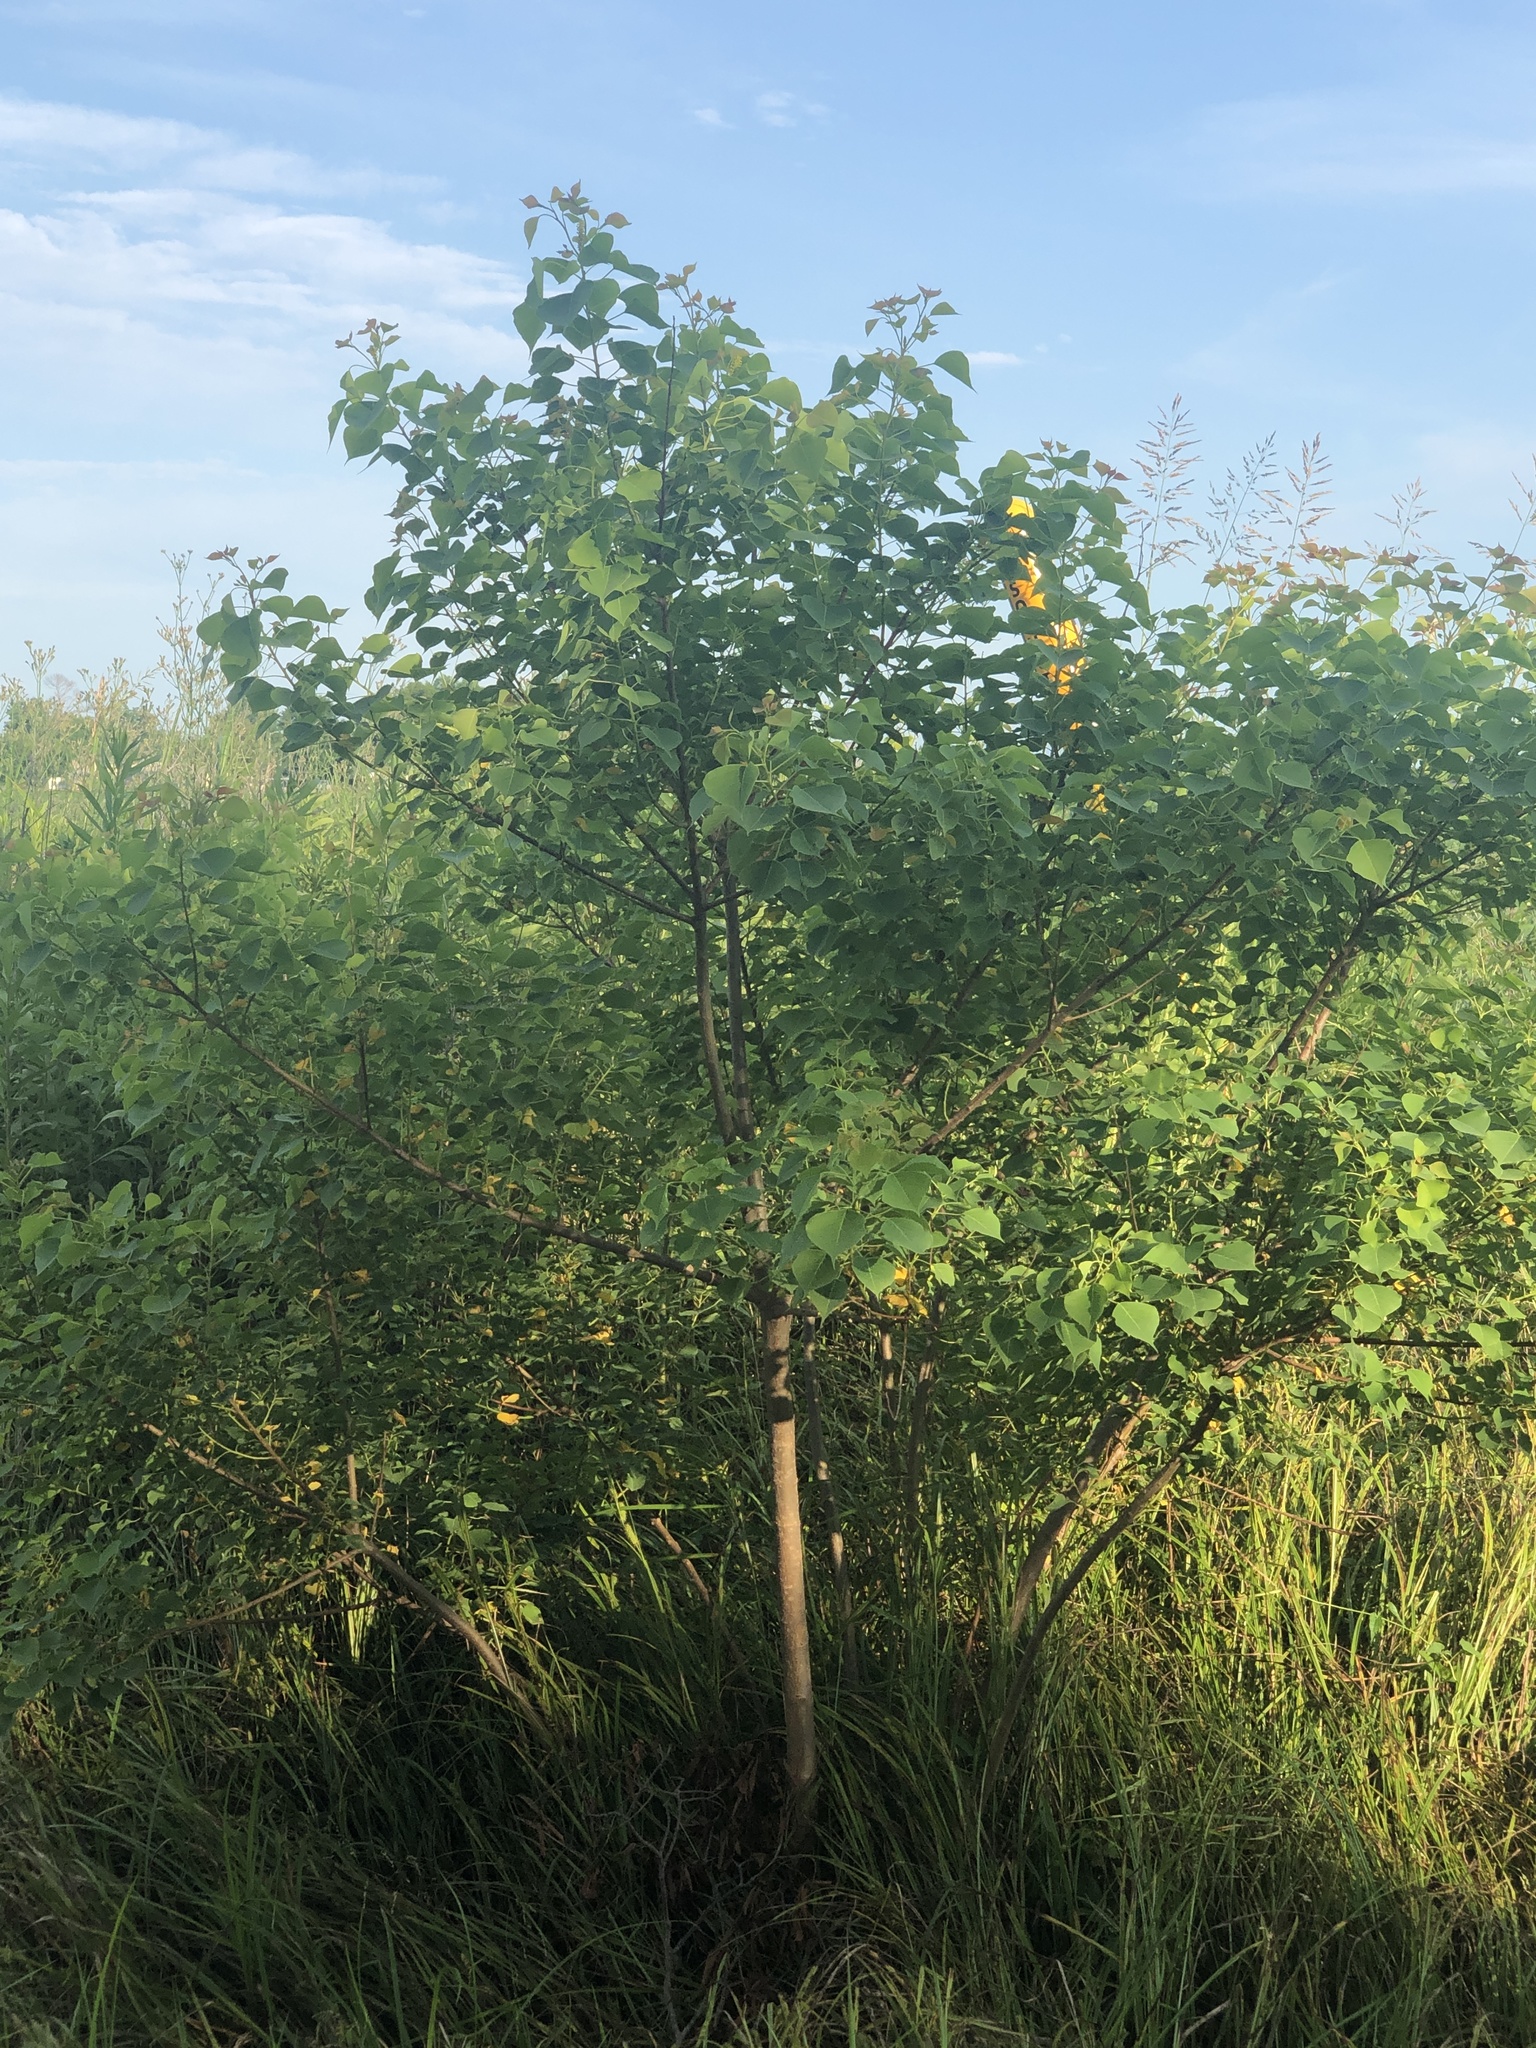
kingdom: Plantae
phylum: Tracheophyta
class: Magnoliopsida
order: Malpighiales
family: Euphorbiaceae
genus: Triadica
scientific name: Triadica sebifera
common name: Chinese tallow
